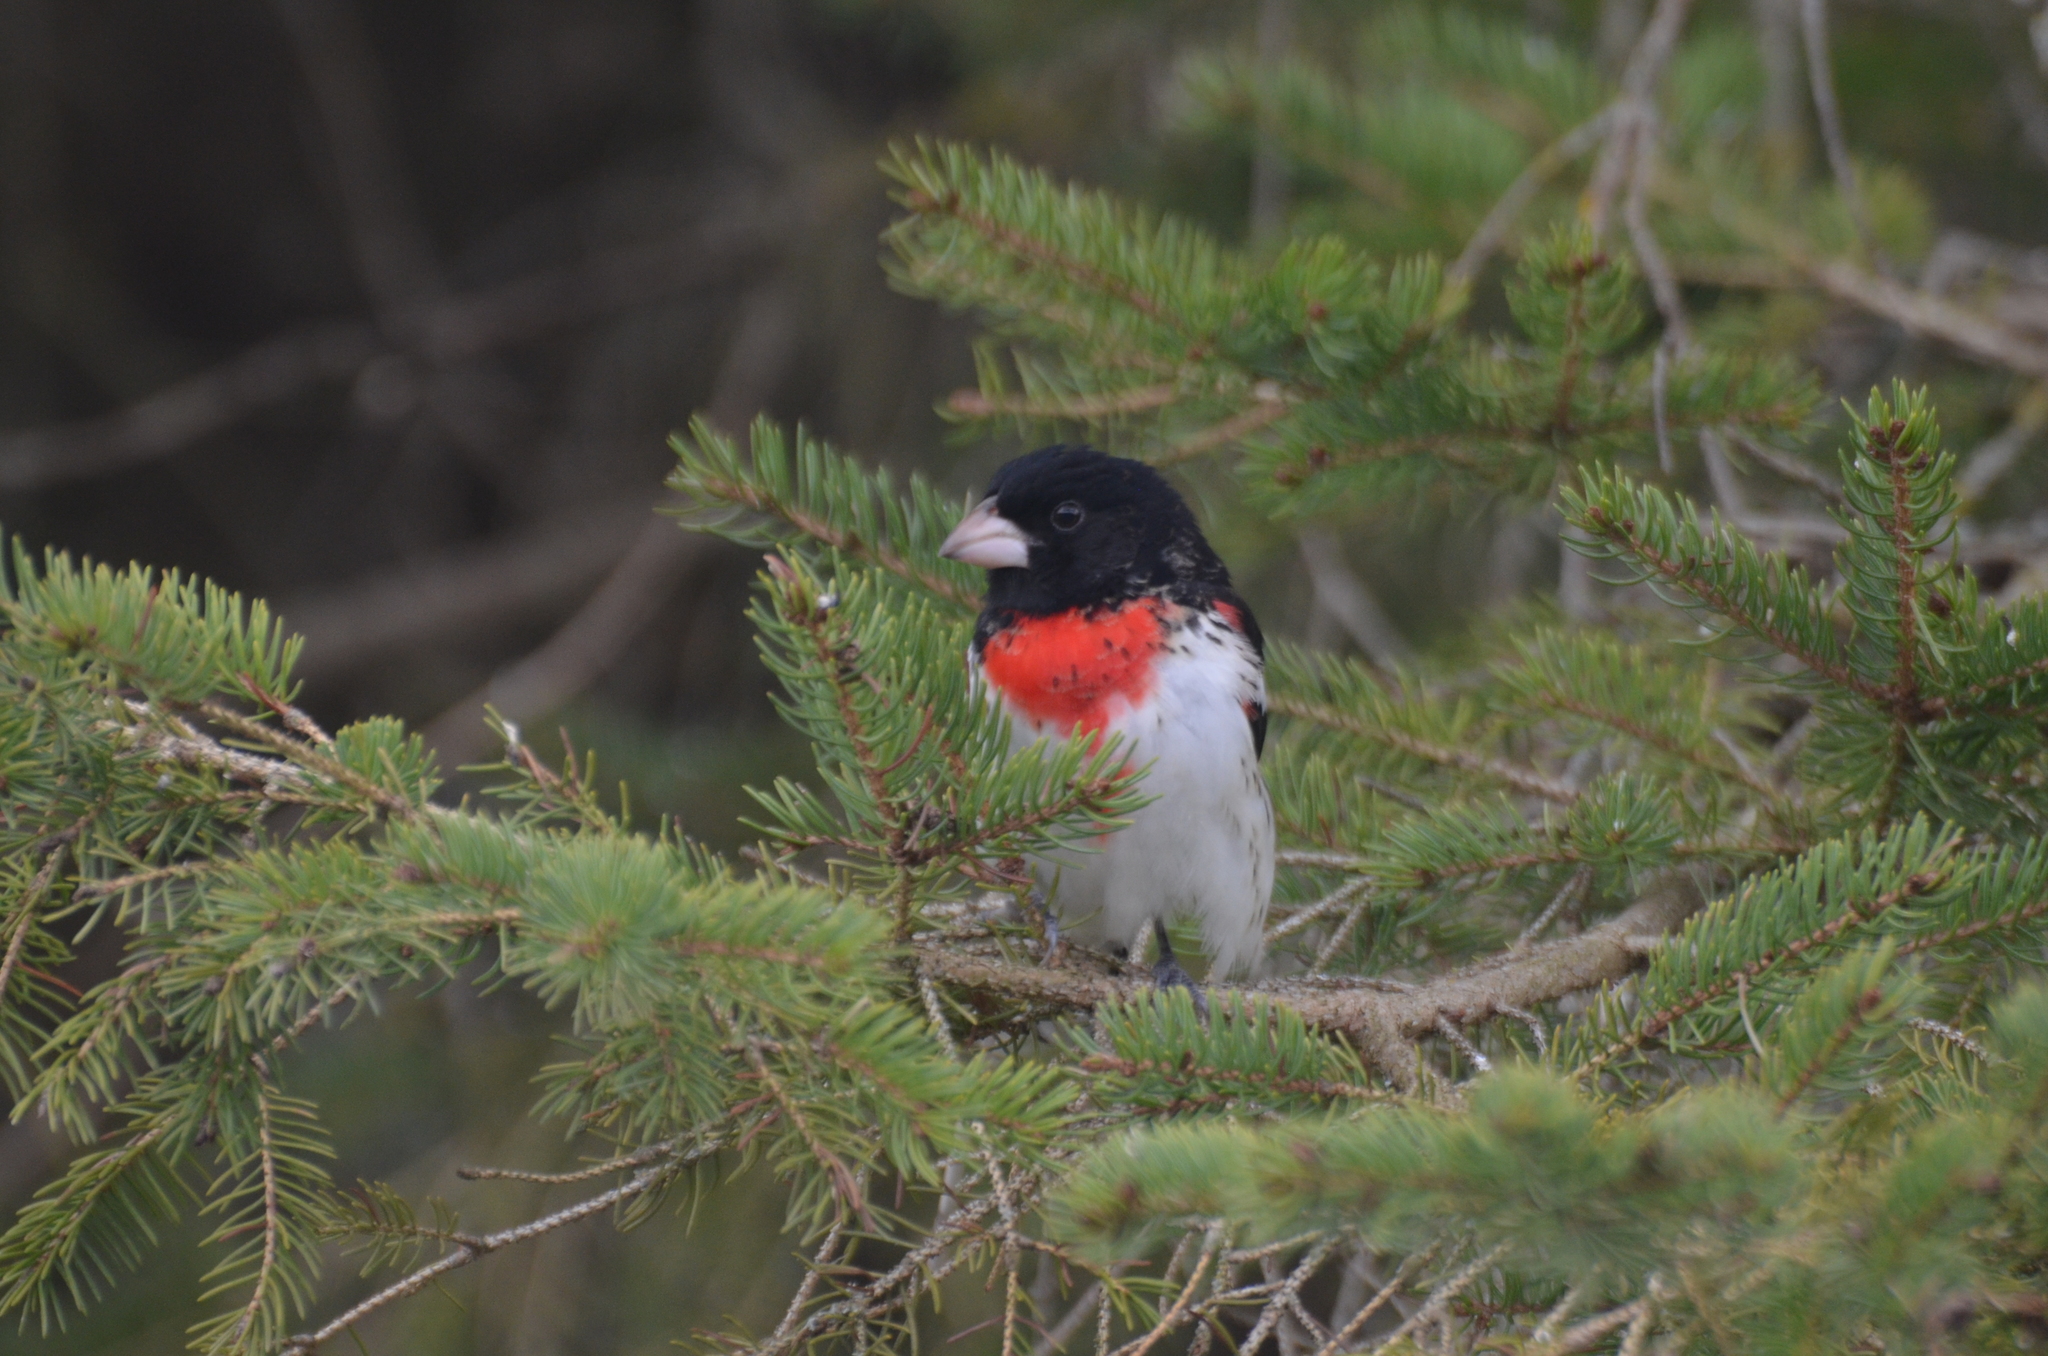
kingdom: Animalia
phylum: Chordata
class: Aves
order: Passeriformes
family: Cardinalidae
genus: Pheucticus
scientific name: Pheucticus ludovicianus
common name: Rose-breasted grosbeak
